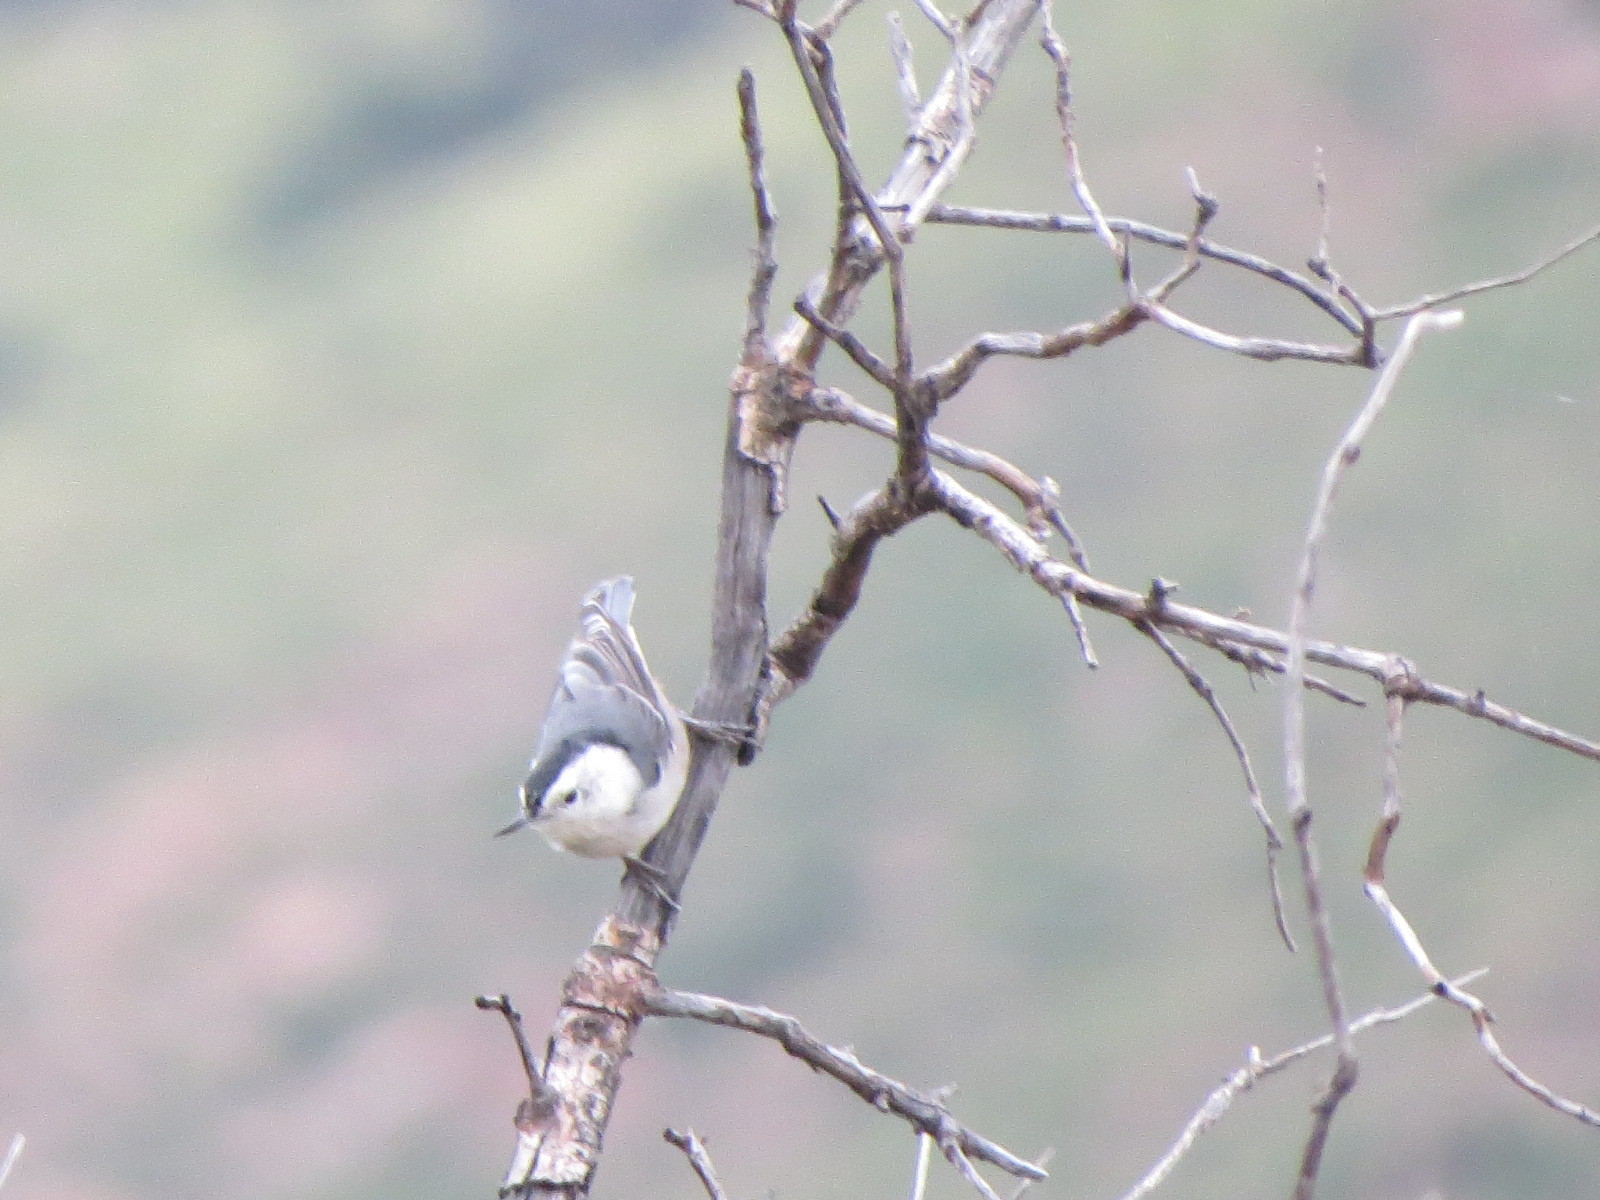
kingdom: Animalia
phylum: Chordata
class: Aves
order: Passeriformes
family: Sittidae
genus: Sitta
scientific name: Sitta carolinensis
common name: White-breasted nuthatch
